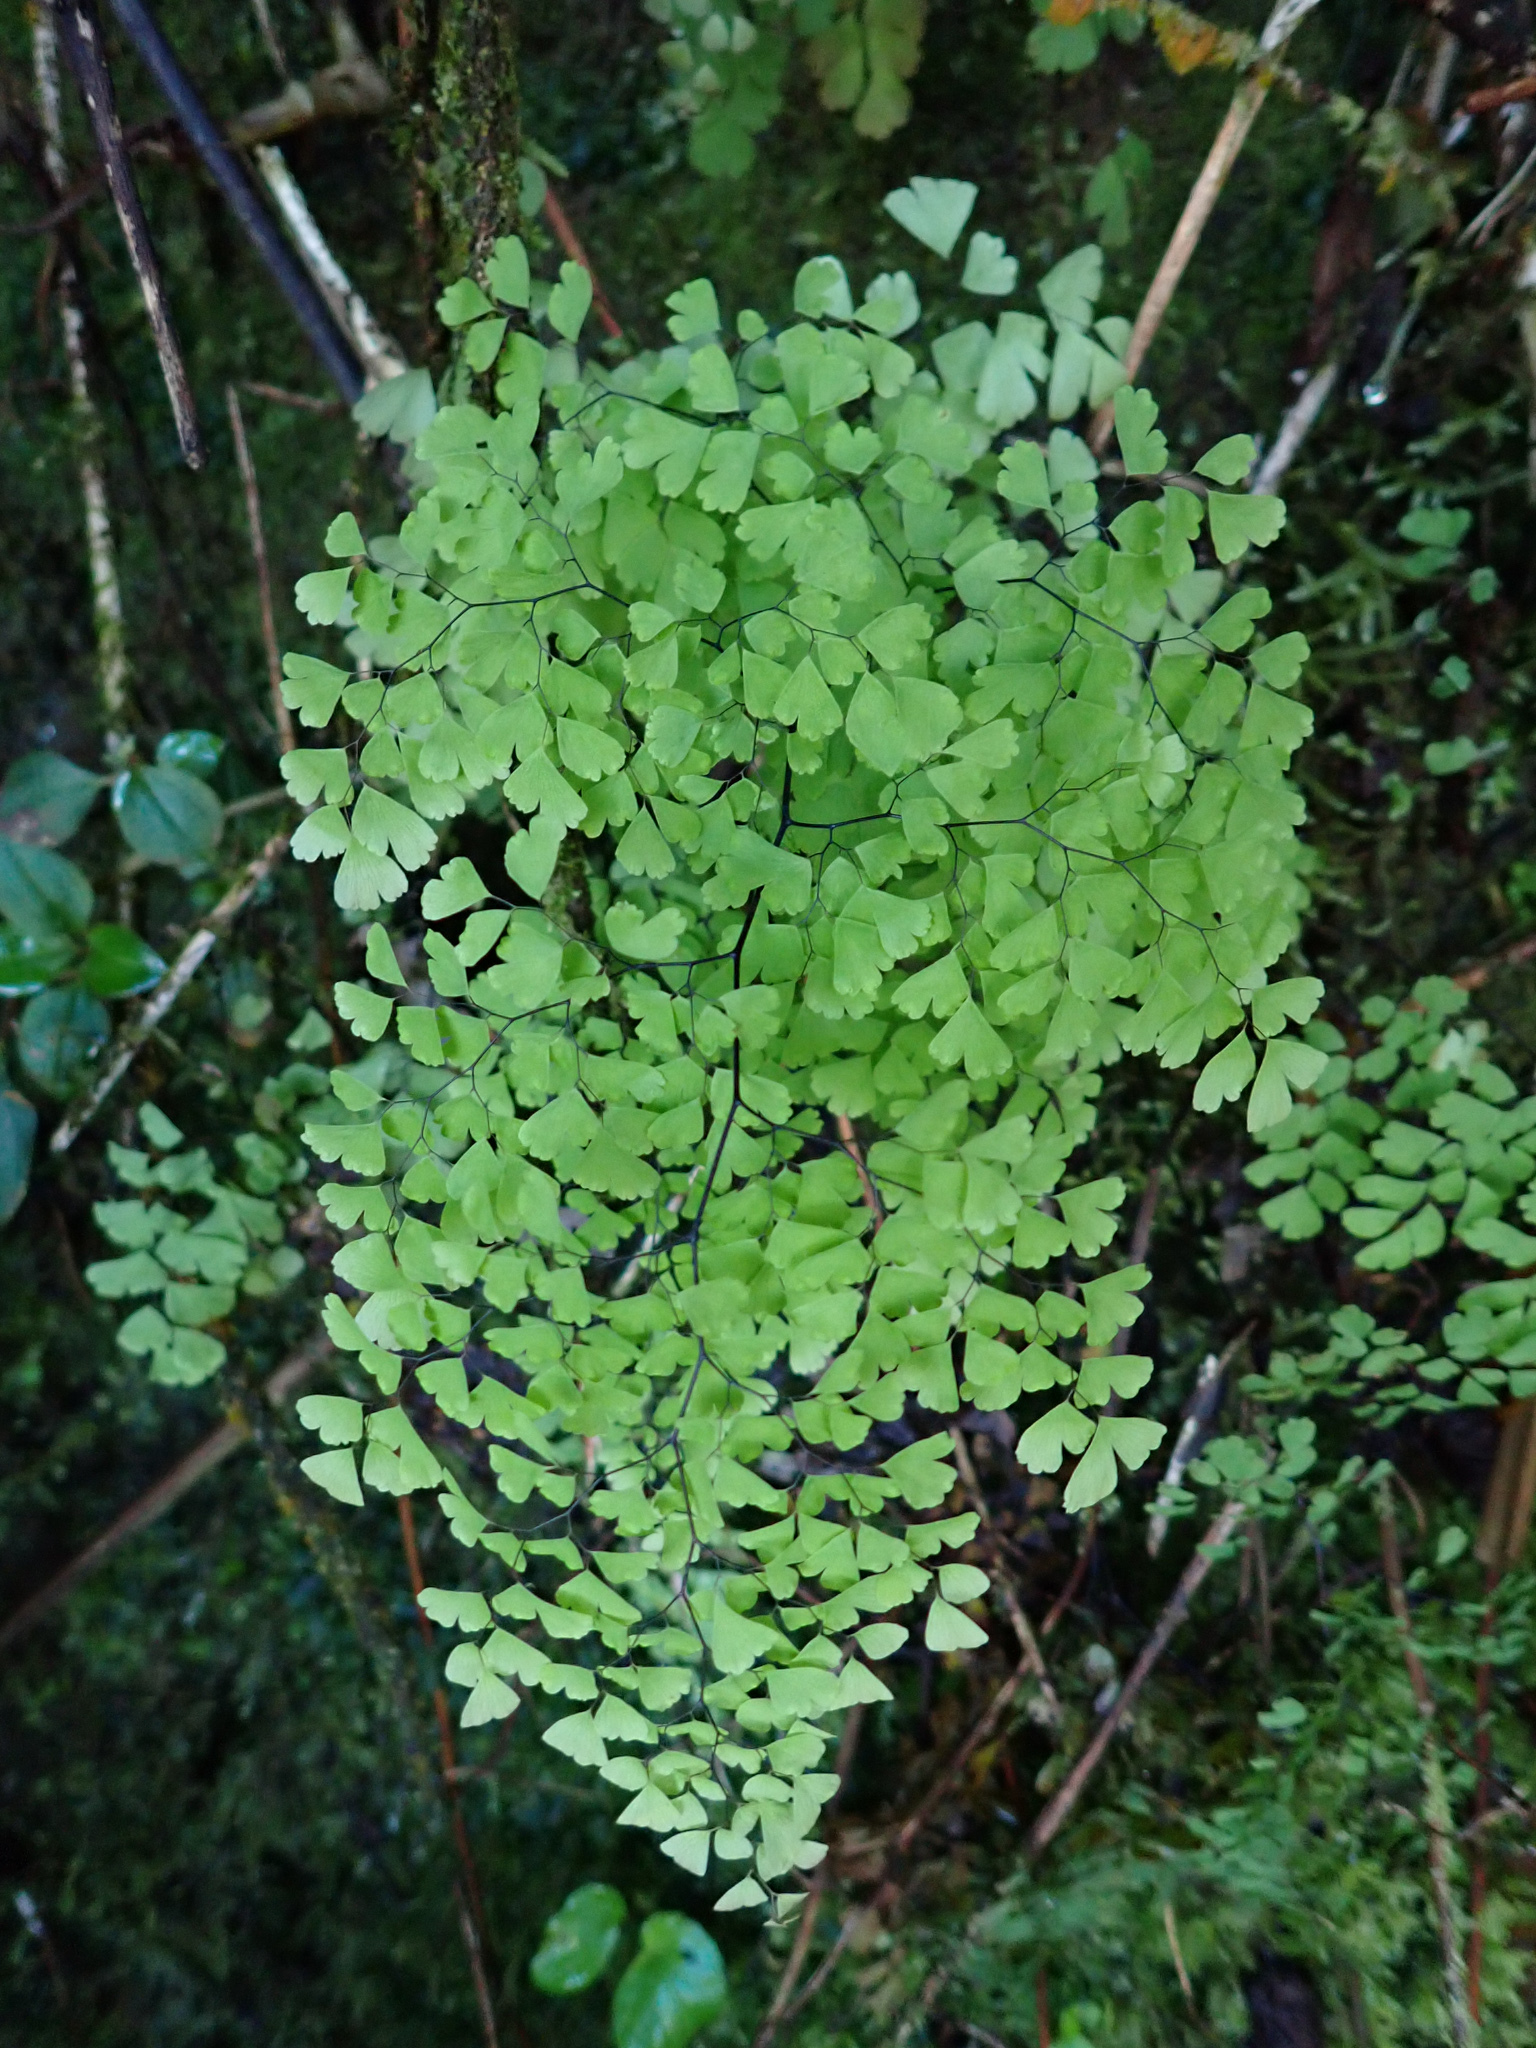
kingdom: Plantae
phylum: Tracheophyta
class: Polypodiopsida
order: Polypodiales
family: Pteridaceae
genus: Adiantum
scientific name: Adiantum raddianum
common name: Delta maidenhair fern
